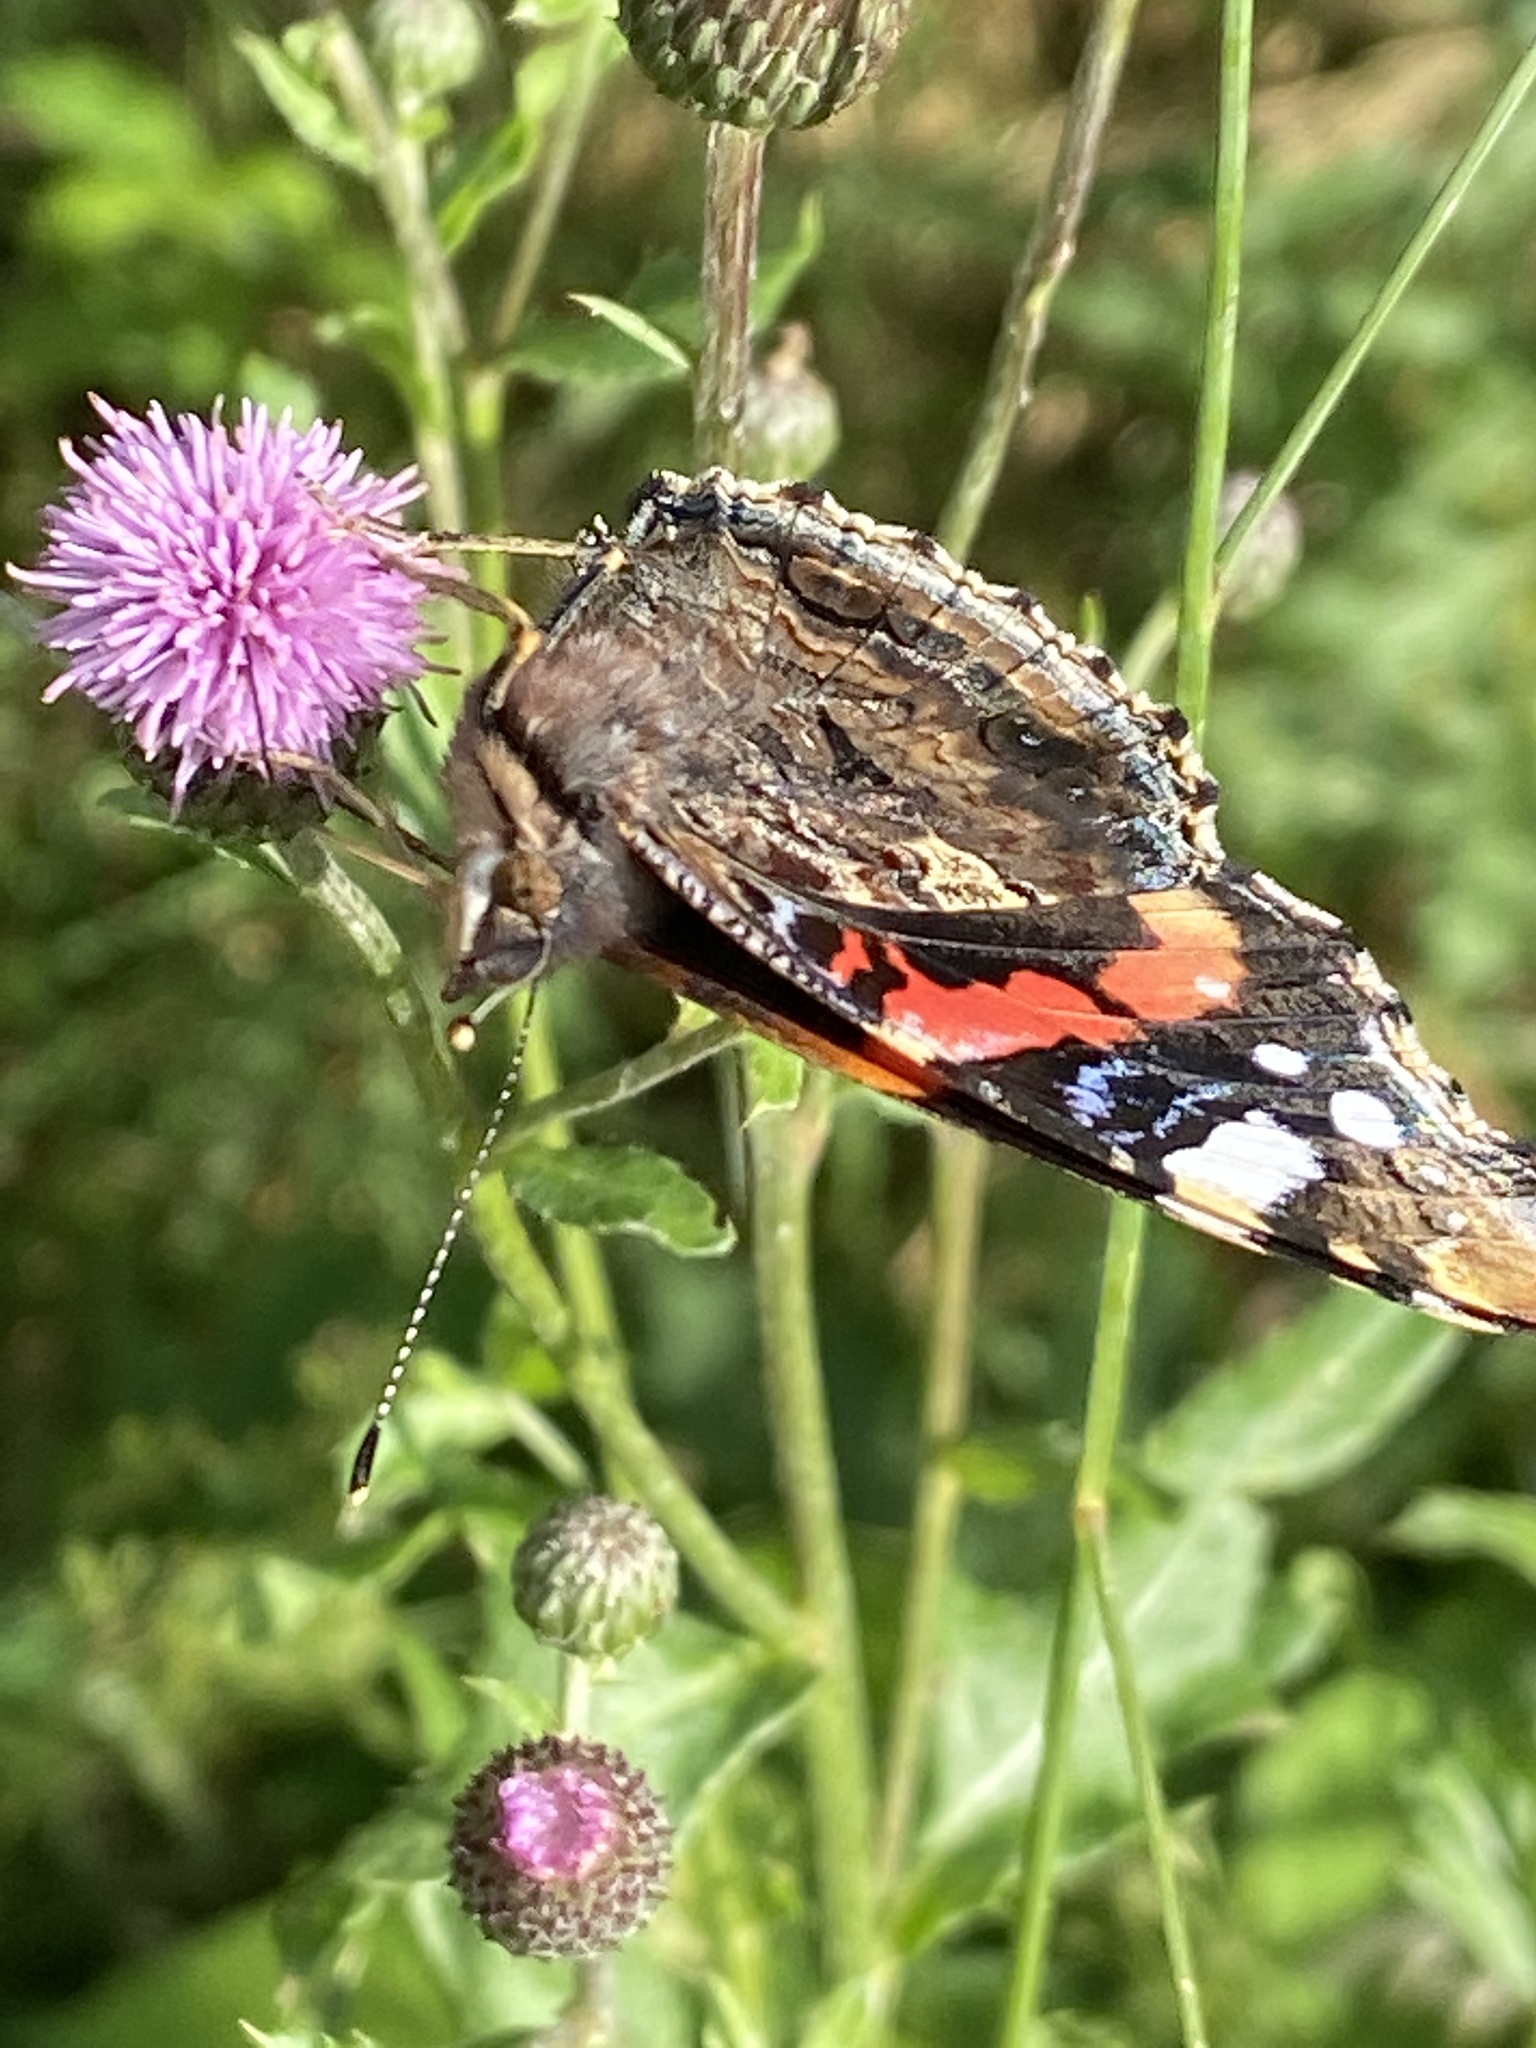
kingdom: Animalia
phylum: Arthropoda
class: Insecta
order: Lepidoptera
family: Nymphalidae
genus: Vanessa
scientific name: Vanessa atalanta
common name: Red admiral
